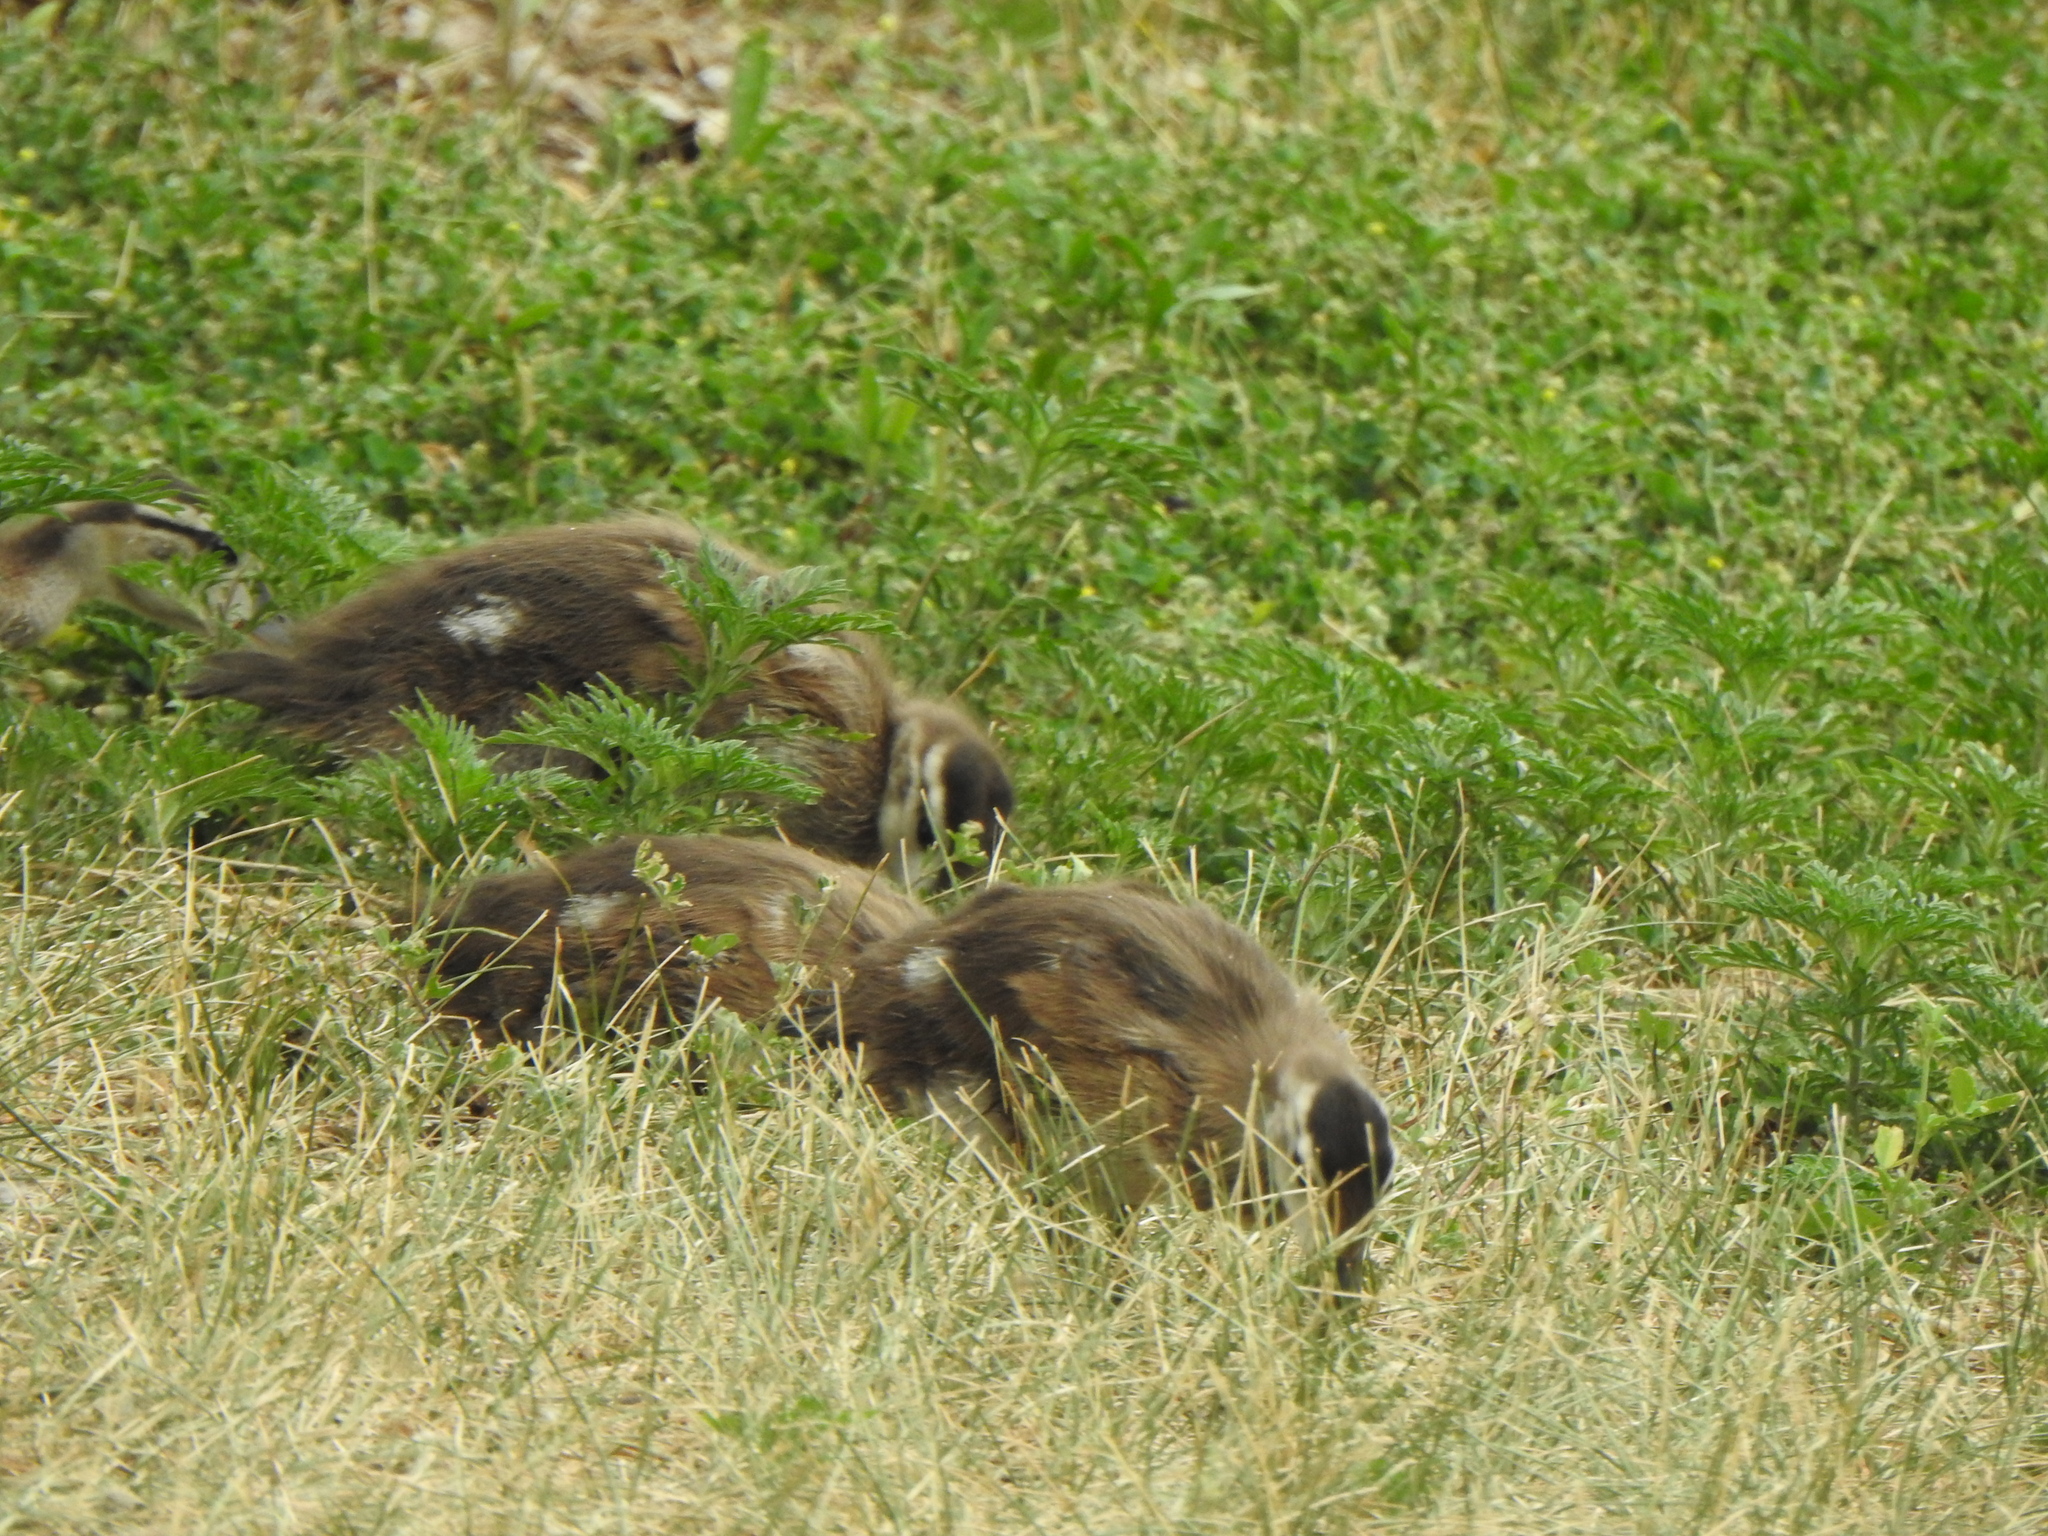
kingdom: Animalia
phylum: Chordata
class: Aves
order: Anseriformes
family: Anatidae
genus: Aix
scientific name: Aix sponsa
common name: Wood duck
